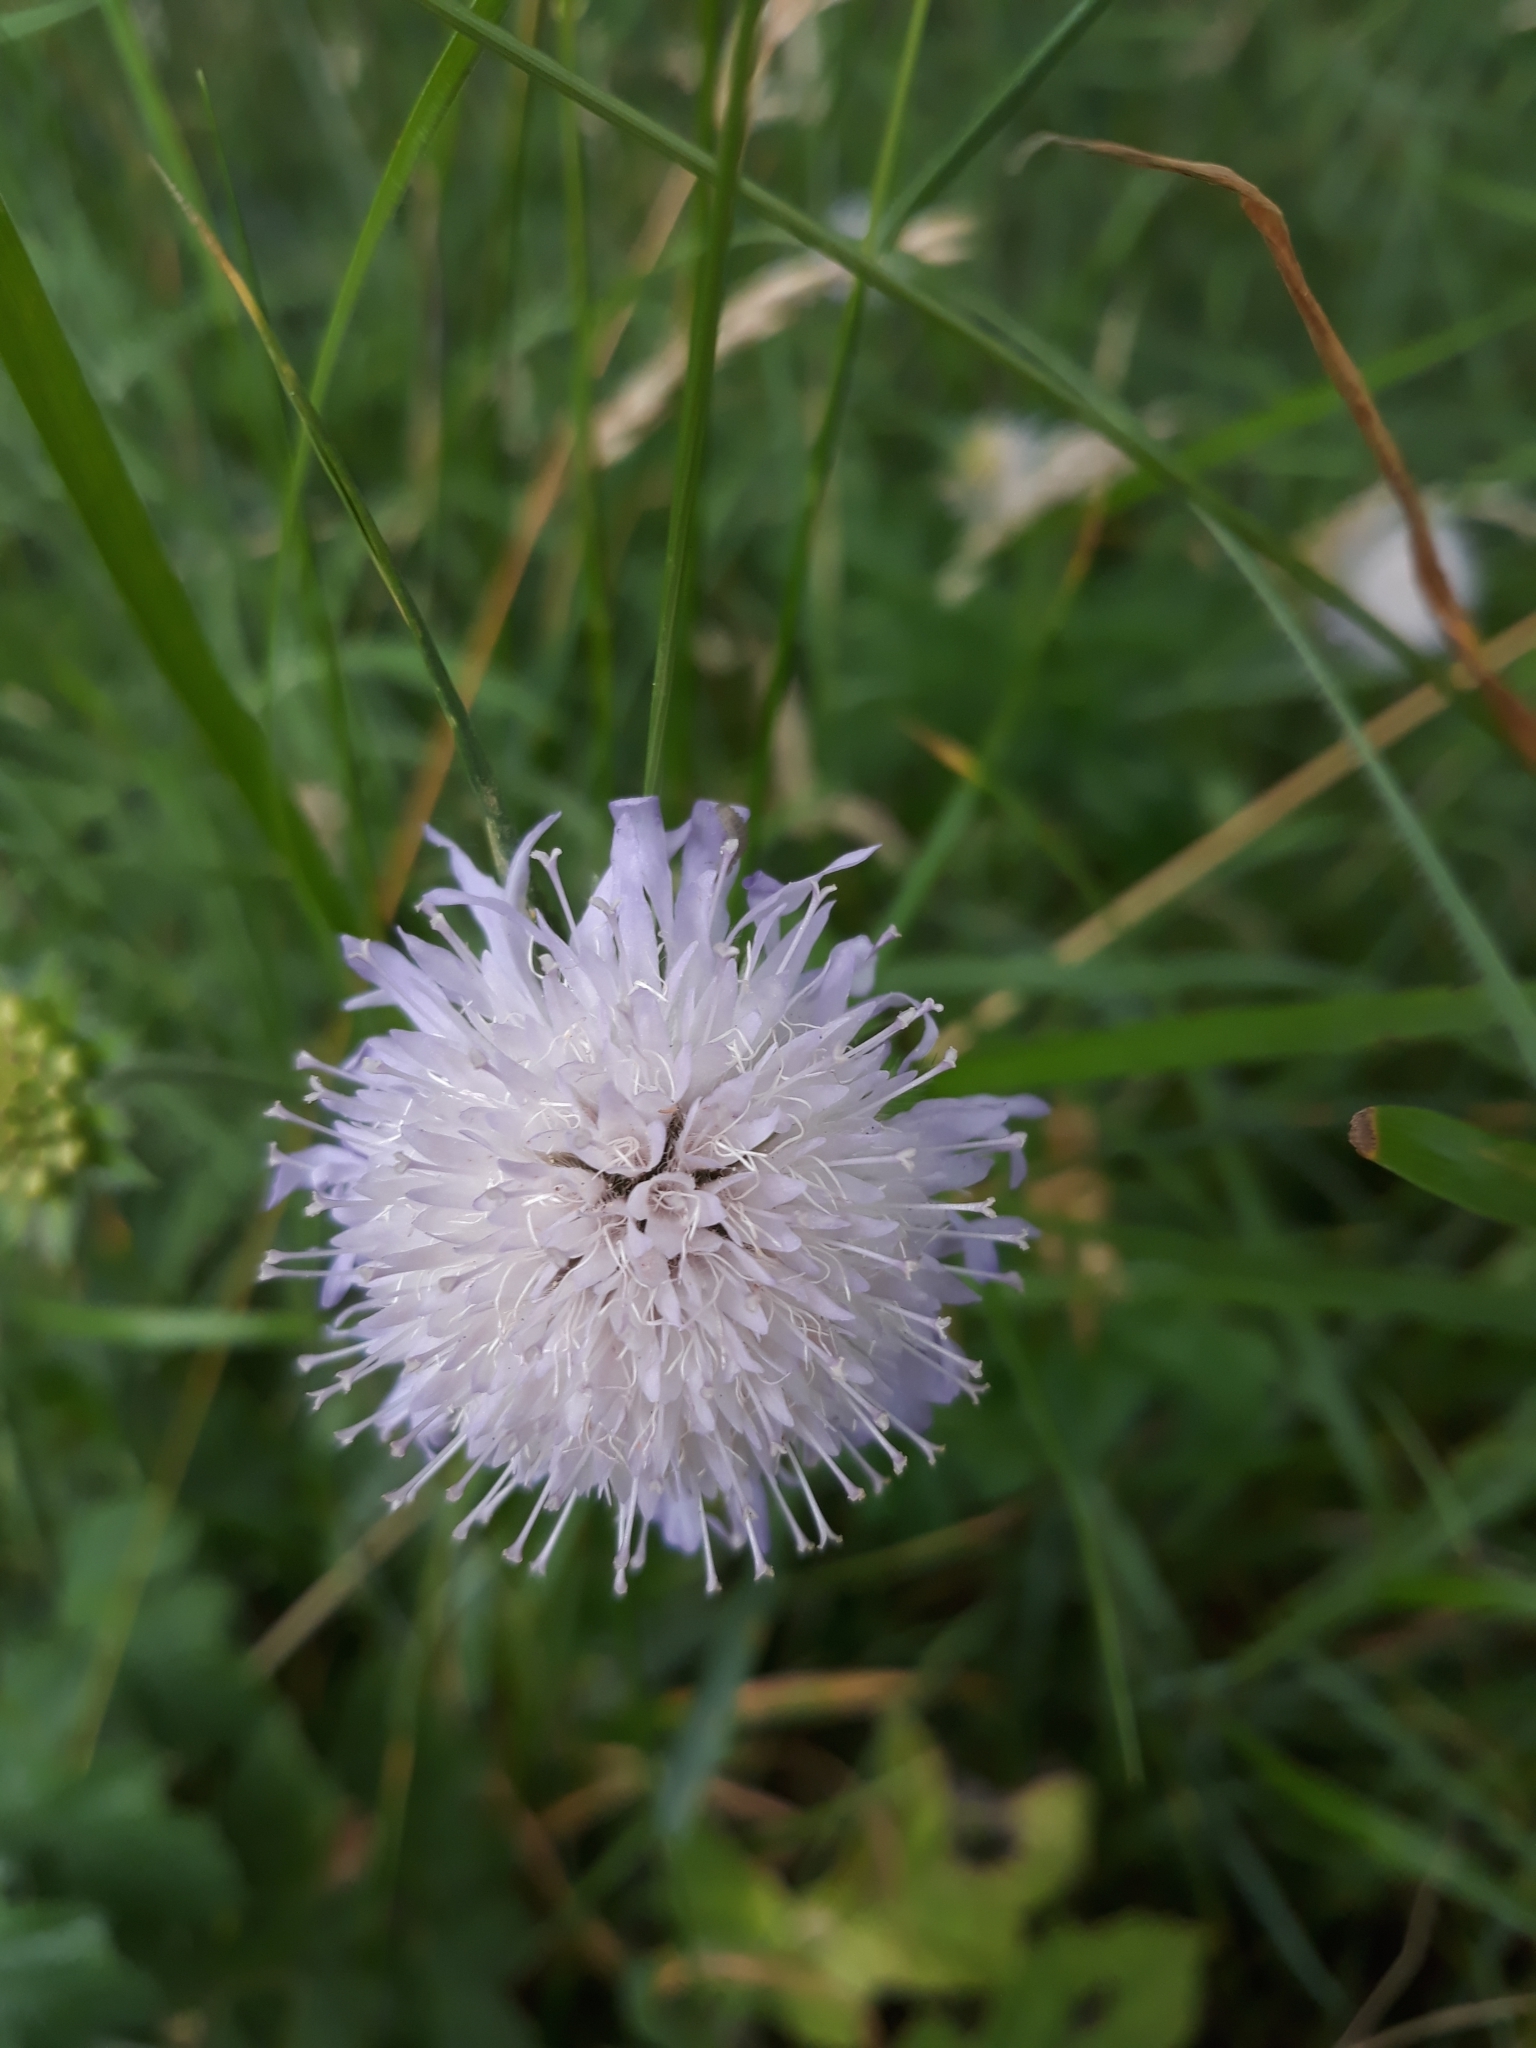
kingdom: Plantae
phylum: Tracheophyta
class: Magnoliopsida
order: Dipsacales
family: Caprifoliaceae
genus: Knautia
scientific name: Knautia arvensis
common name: Field scabiosa
